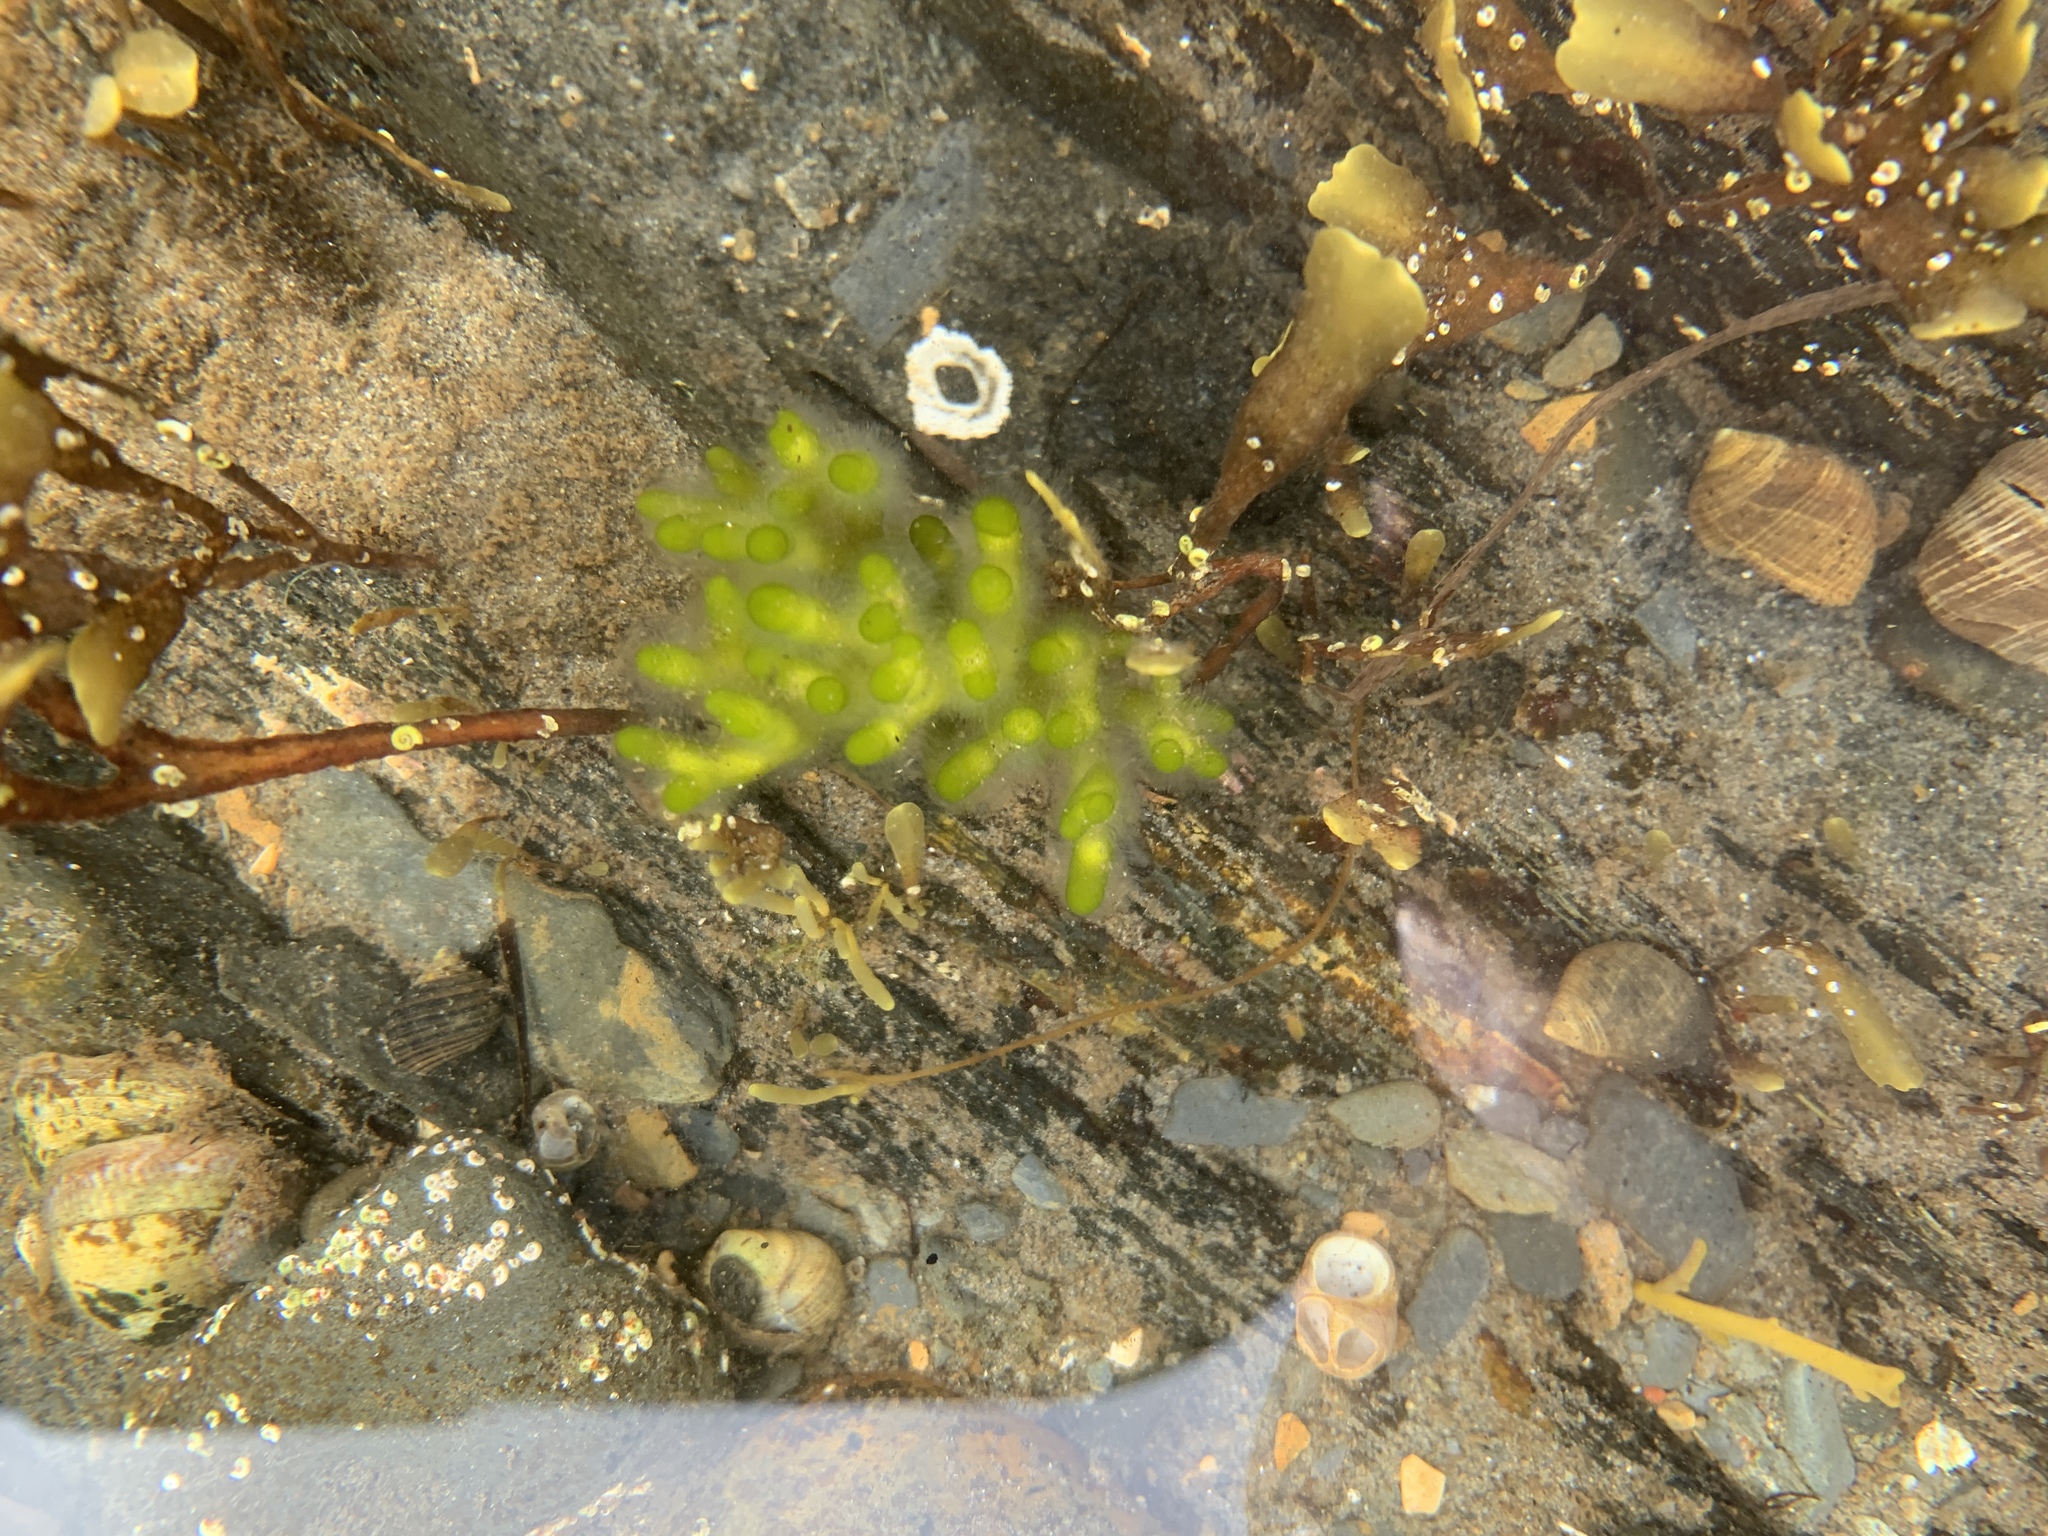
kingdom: Plantae
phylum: Chlorophyta
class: Ulvophyceae
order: Bryopsidales
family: Codiaceae
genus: Codium
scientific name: Codium fragile
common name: Dead man's fingers
